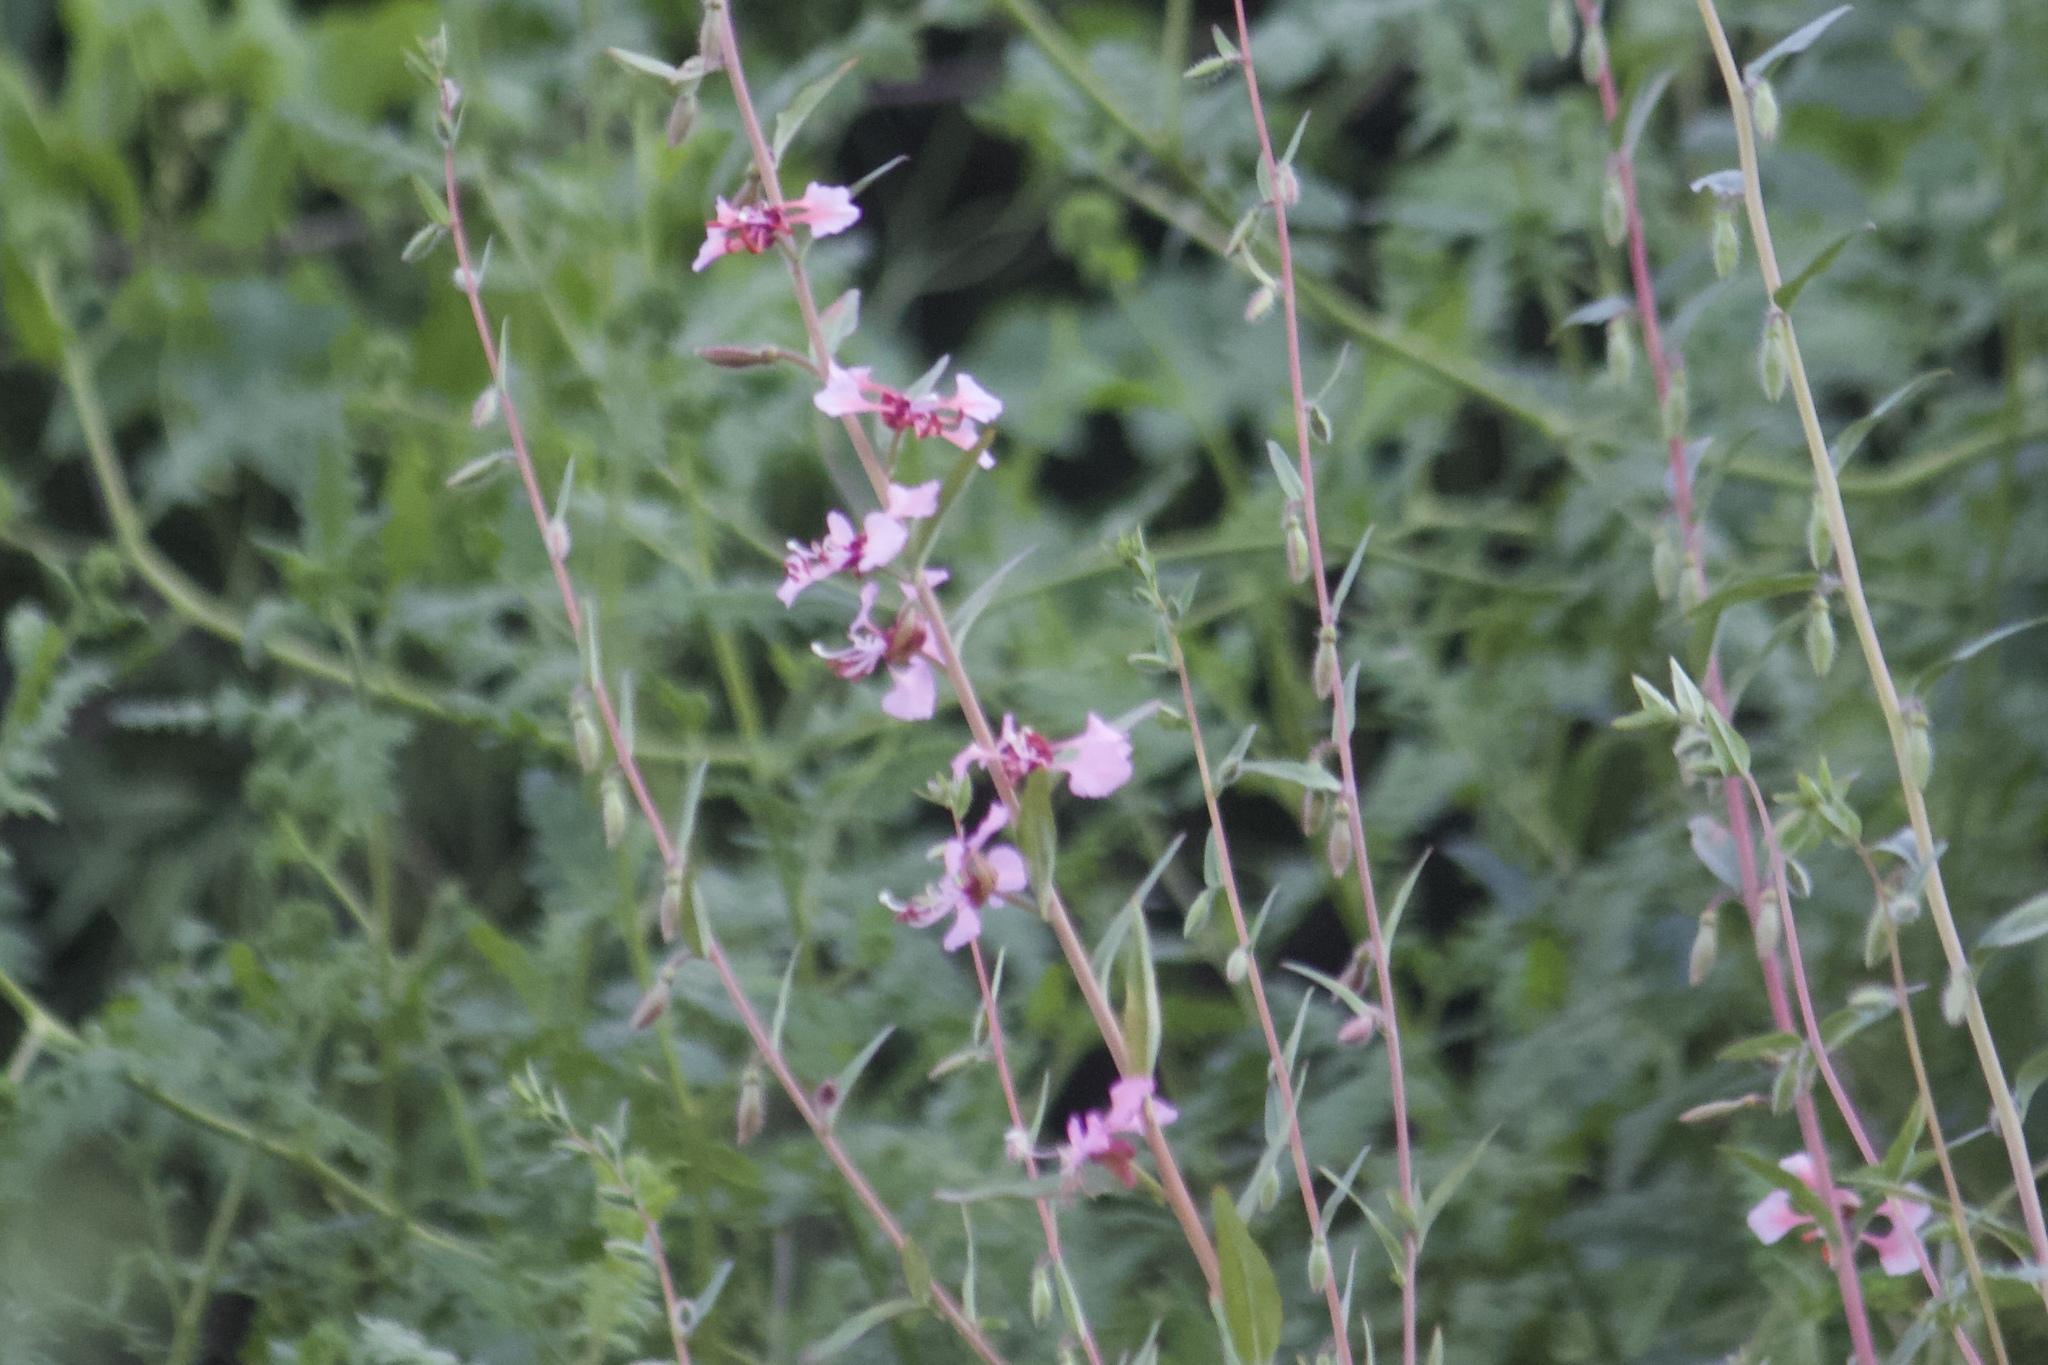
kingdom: Plantae
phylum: Tracheophyta
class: Magnoliopsida
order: Myrtales
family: Onagraceae
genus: Clarkia
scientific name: Clarkia unguiculata
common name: Clarkia
